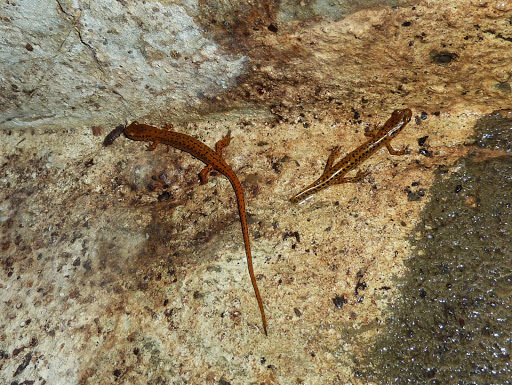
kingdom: Animalia
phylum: Chordata
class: Amphibia
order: Caudata
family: Plethodontidae
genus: Eurycea
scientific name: Eurycea longicauda
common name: Long-tailed salamander
